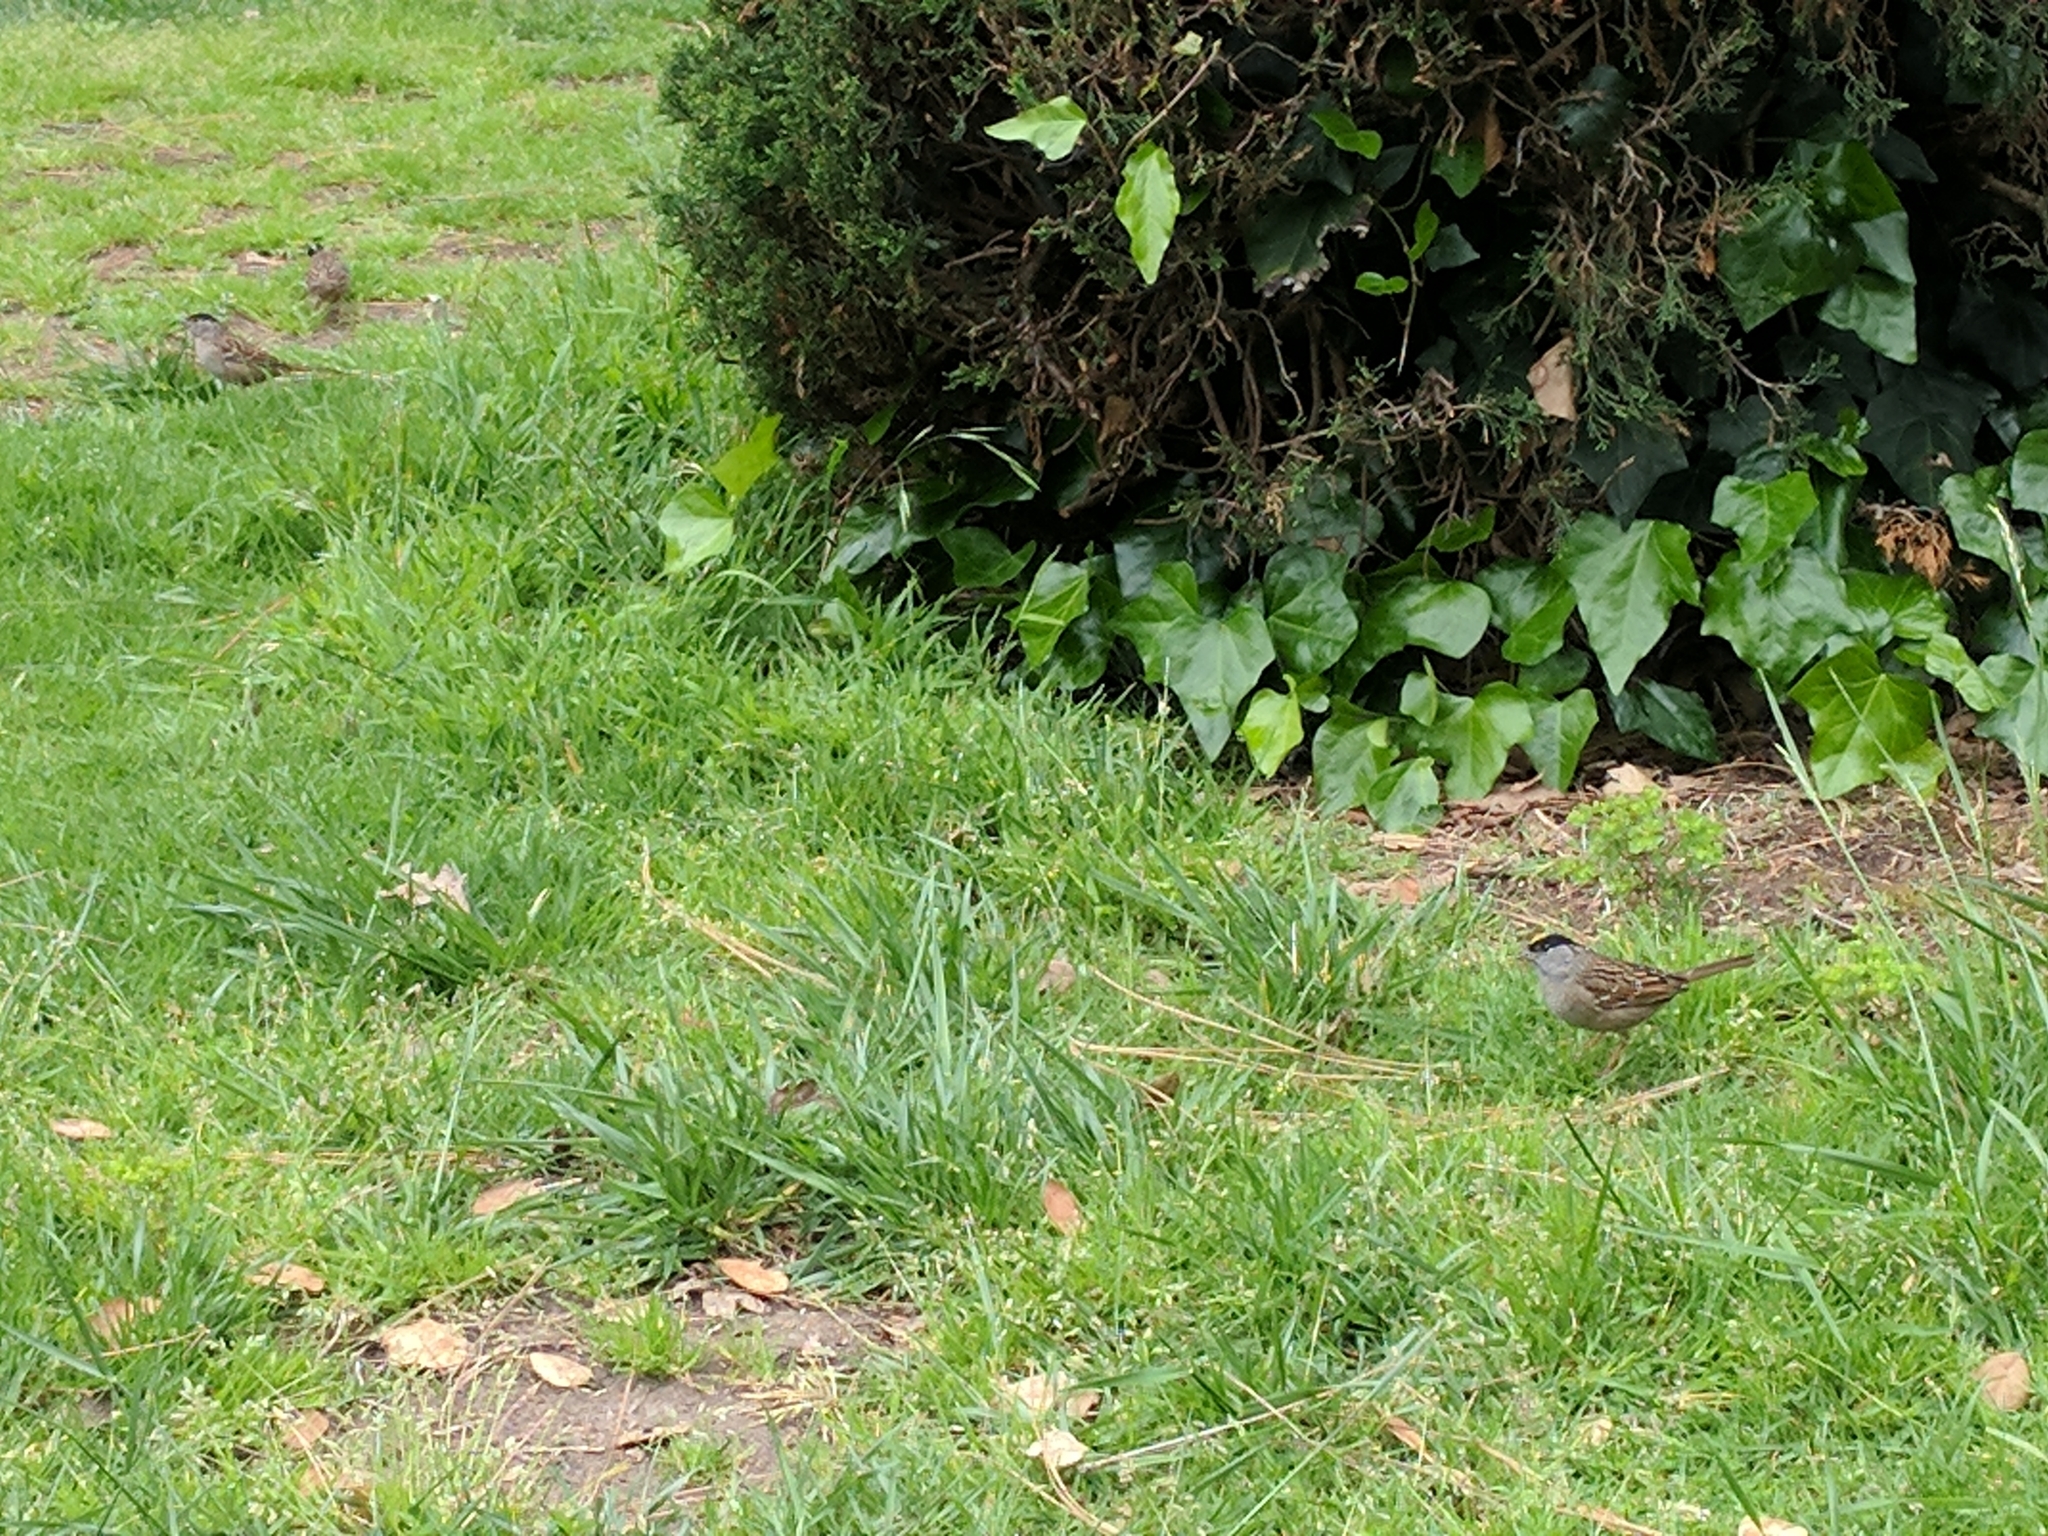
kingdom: Animalia
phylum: Chordata
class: Aves
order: Passeriformes
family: Passerellidae
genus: Zonotrichia
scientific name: Zonotrichia atricapilla
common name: Golden-crowned sparrow
